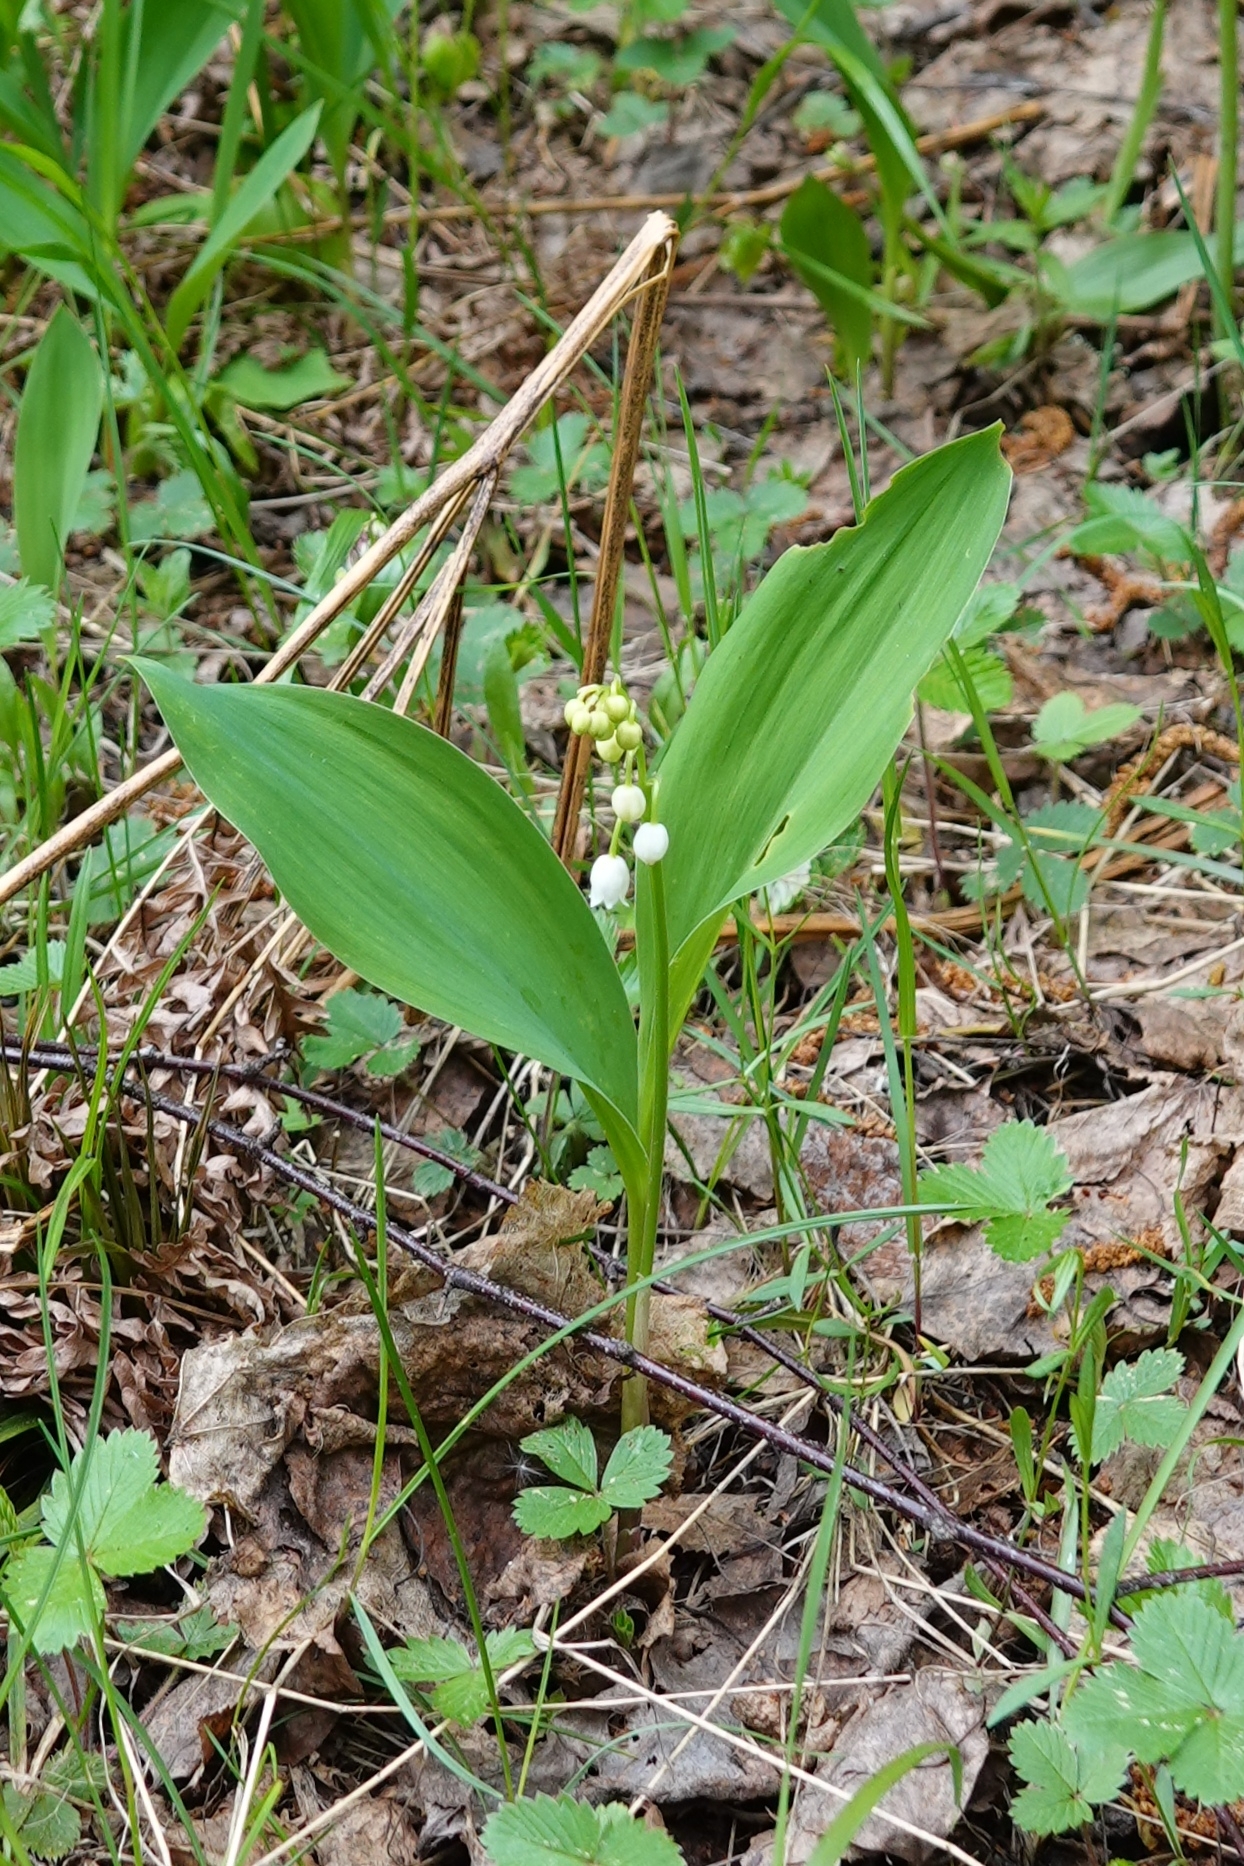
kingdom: Plantae
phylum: Tracheophyta
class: Liliopsida
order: Asparagales
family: Asparagaceae
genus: Convallaria
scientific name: Convallaria majalis
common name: Lily-of-the-valley
